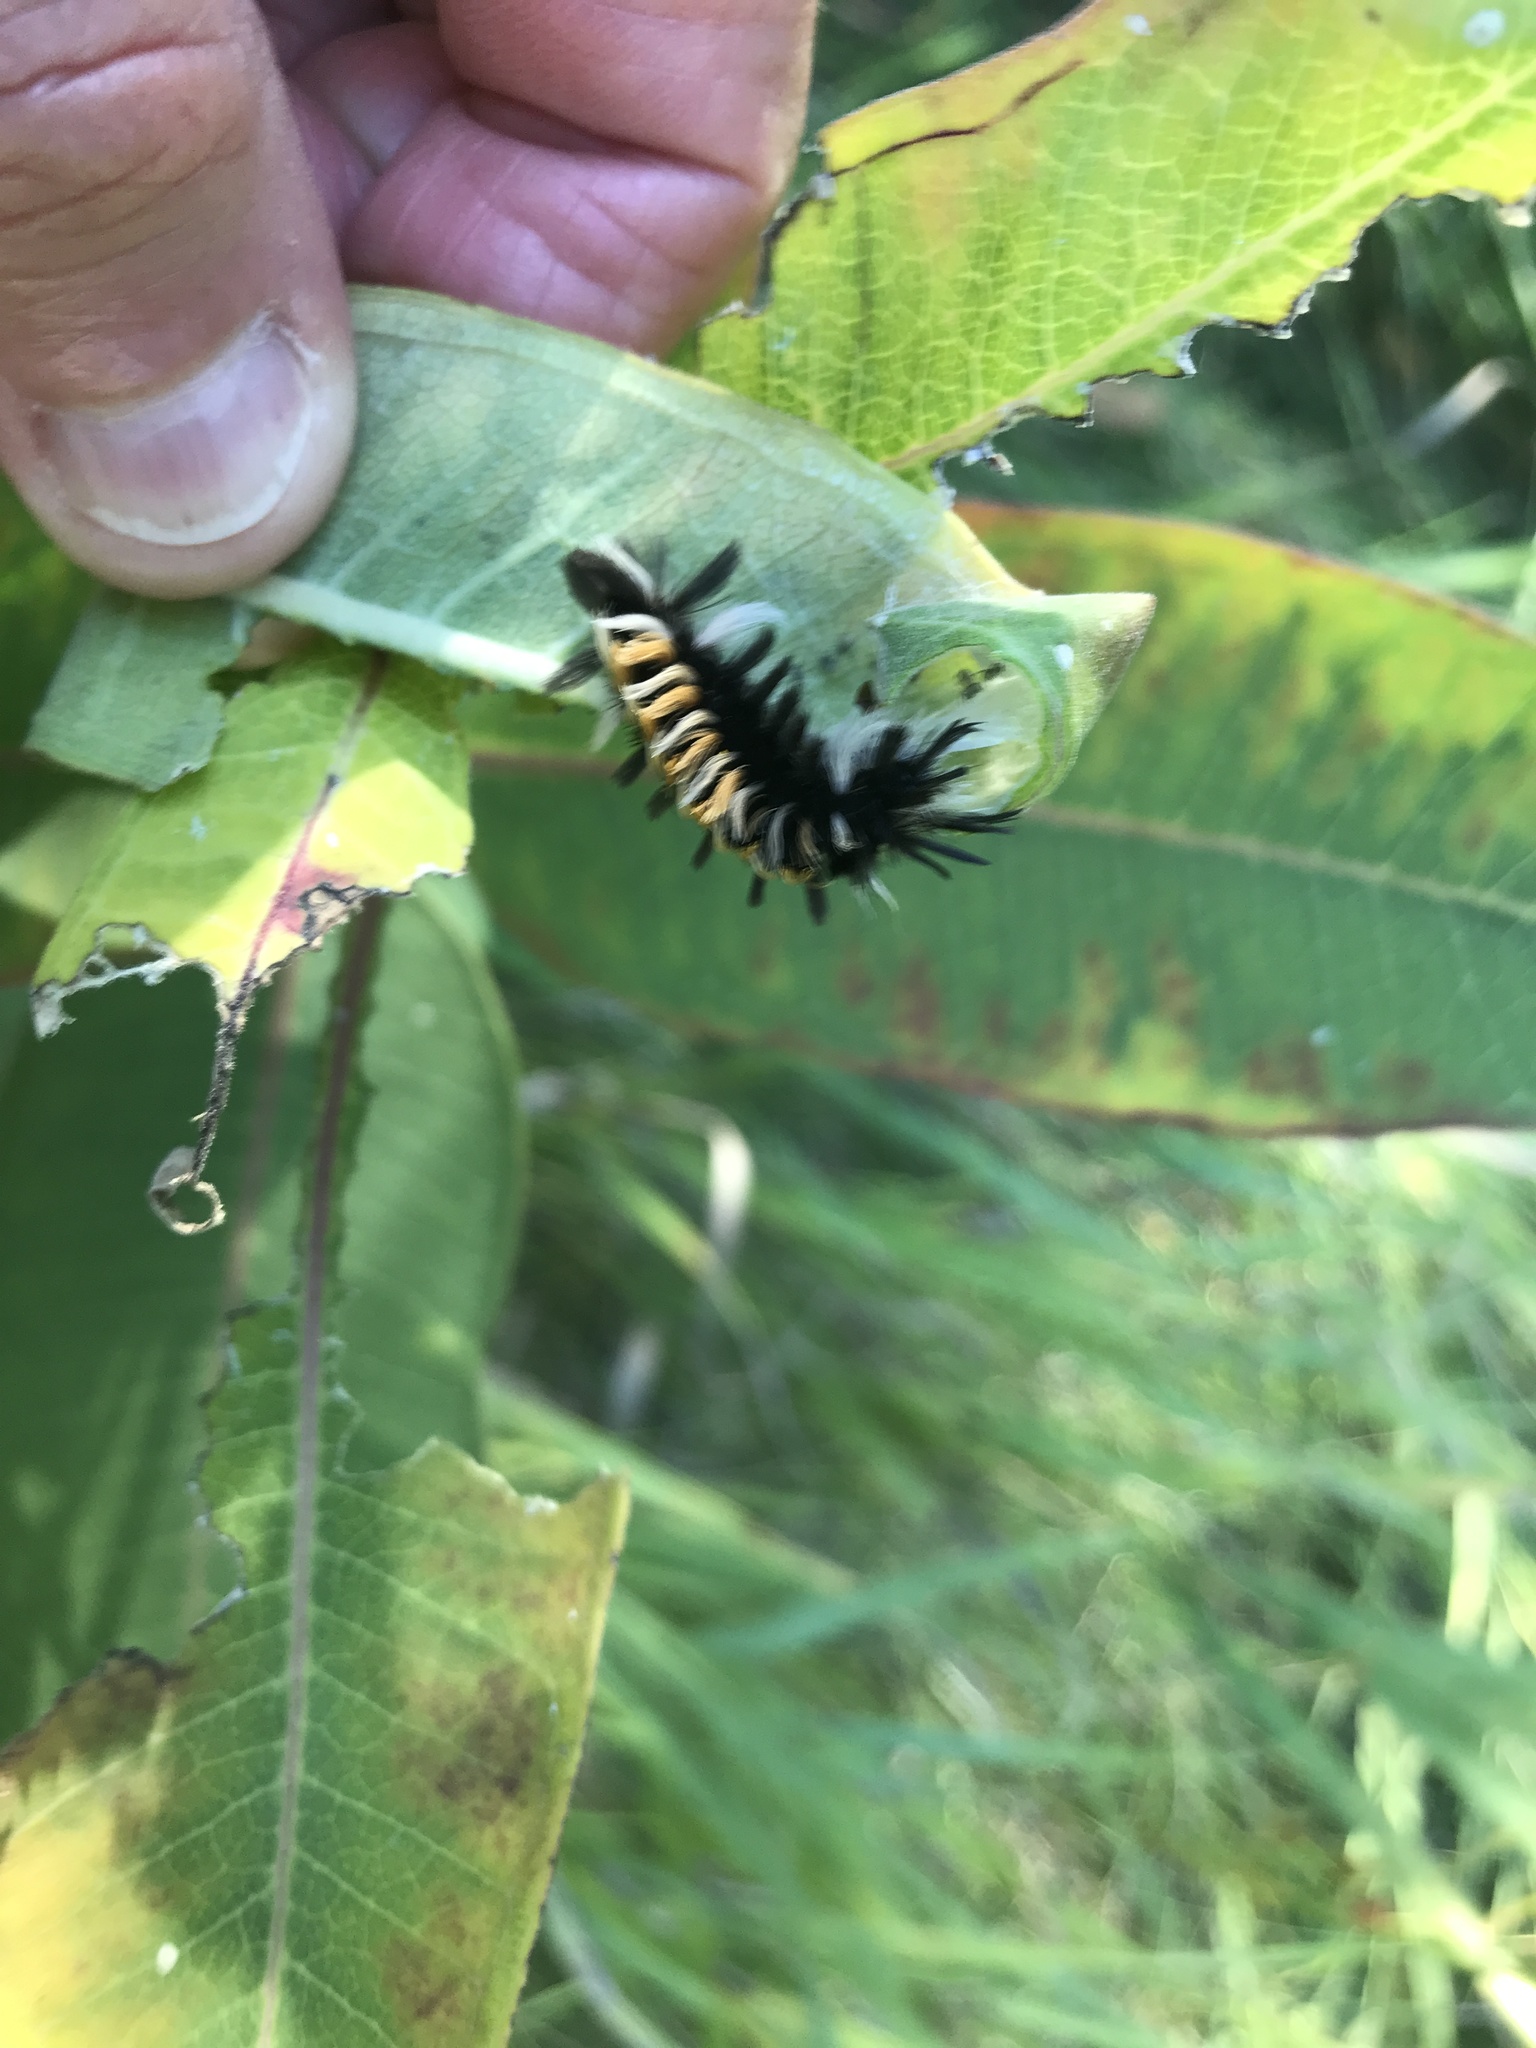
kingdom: Animalia
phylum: Arthropoda
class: Insecta
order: Lepidoptera
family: Erebidae
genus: Euchaetes
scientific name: Euchaetes egle
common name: Milkweed tussock moth
